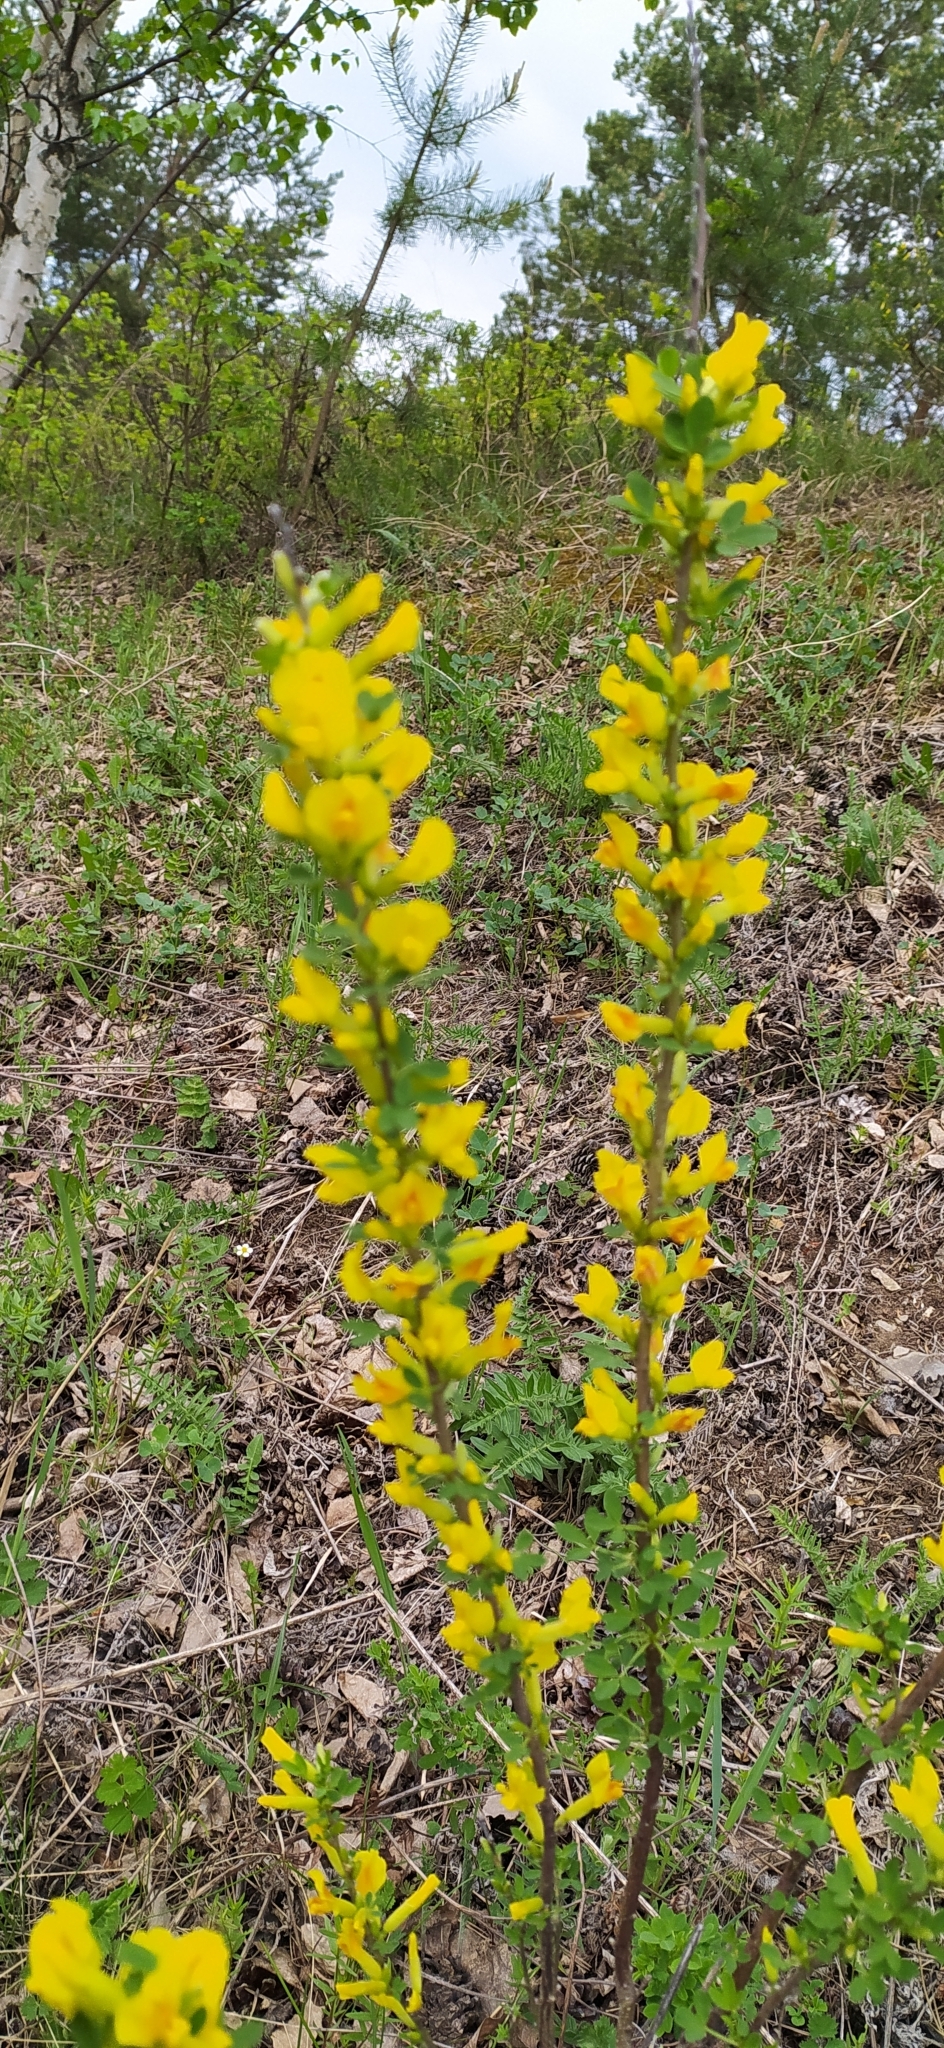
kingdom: Plantae
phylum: Tracheophyta
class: Magnoliopsida
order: Fabales
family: Fabaceae
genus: Chamaecytisus
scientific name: Chamaecytisus ruthenicus
